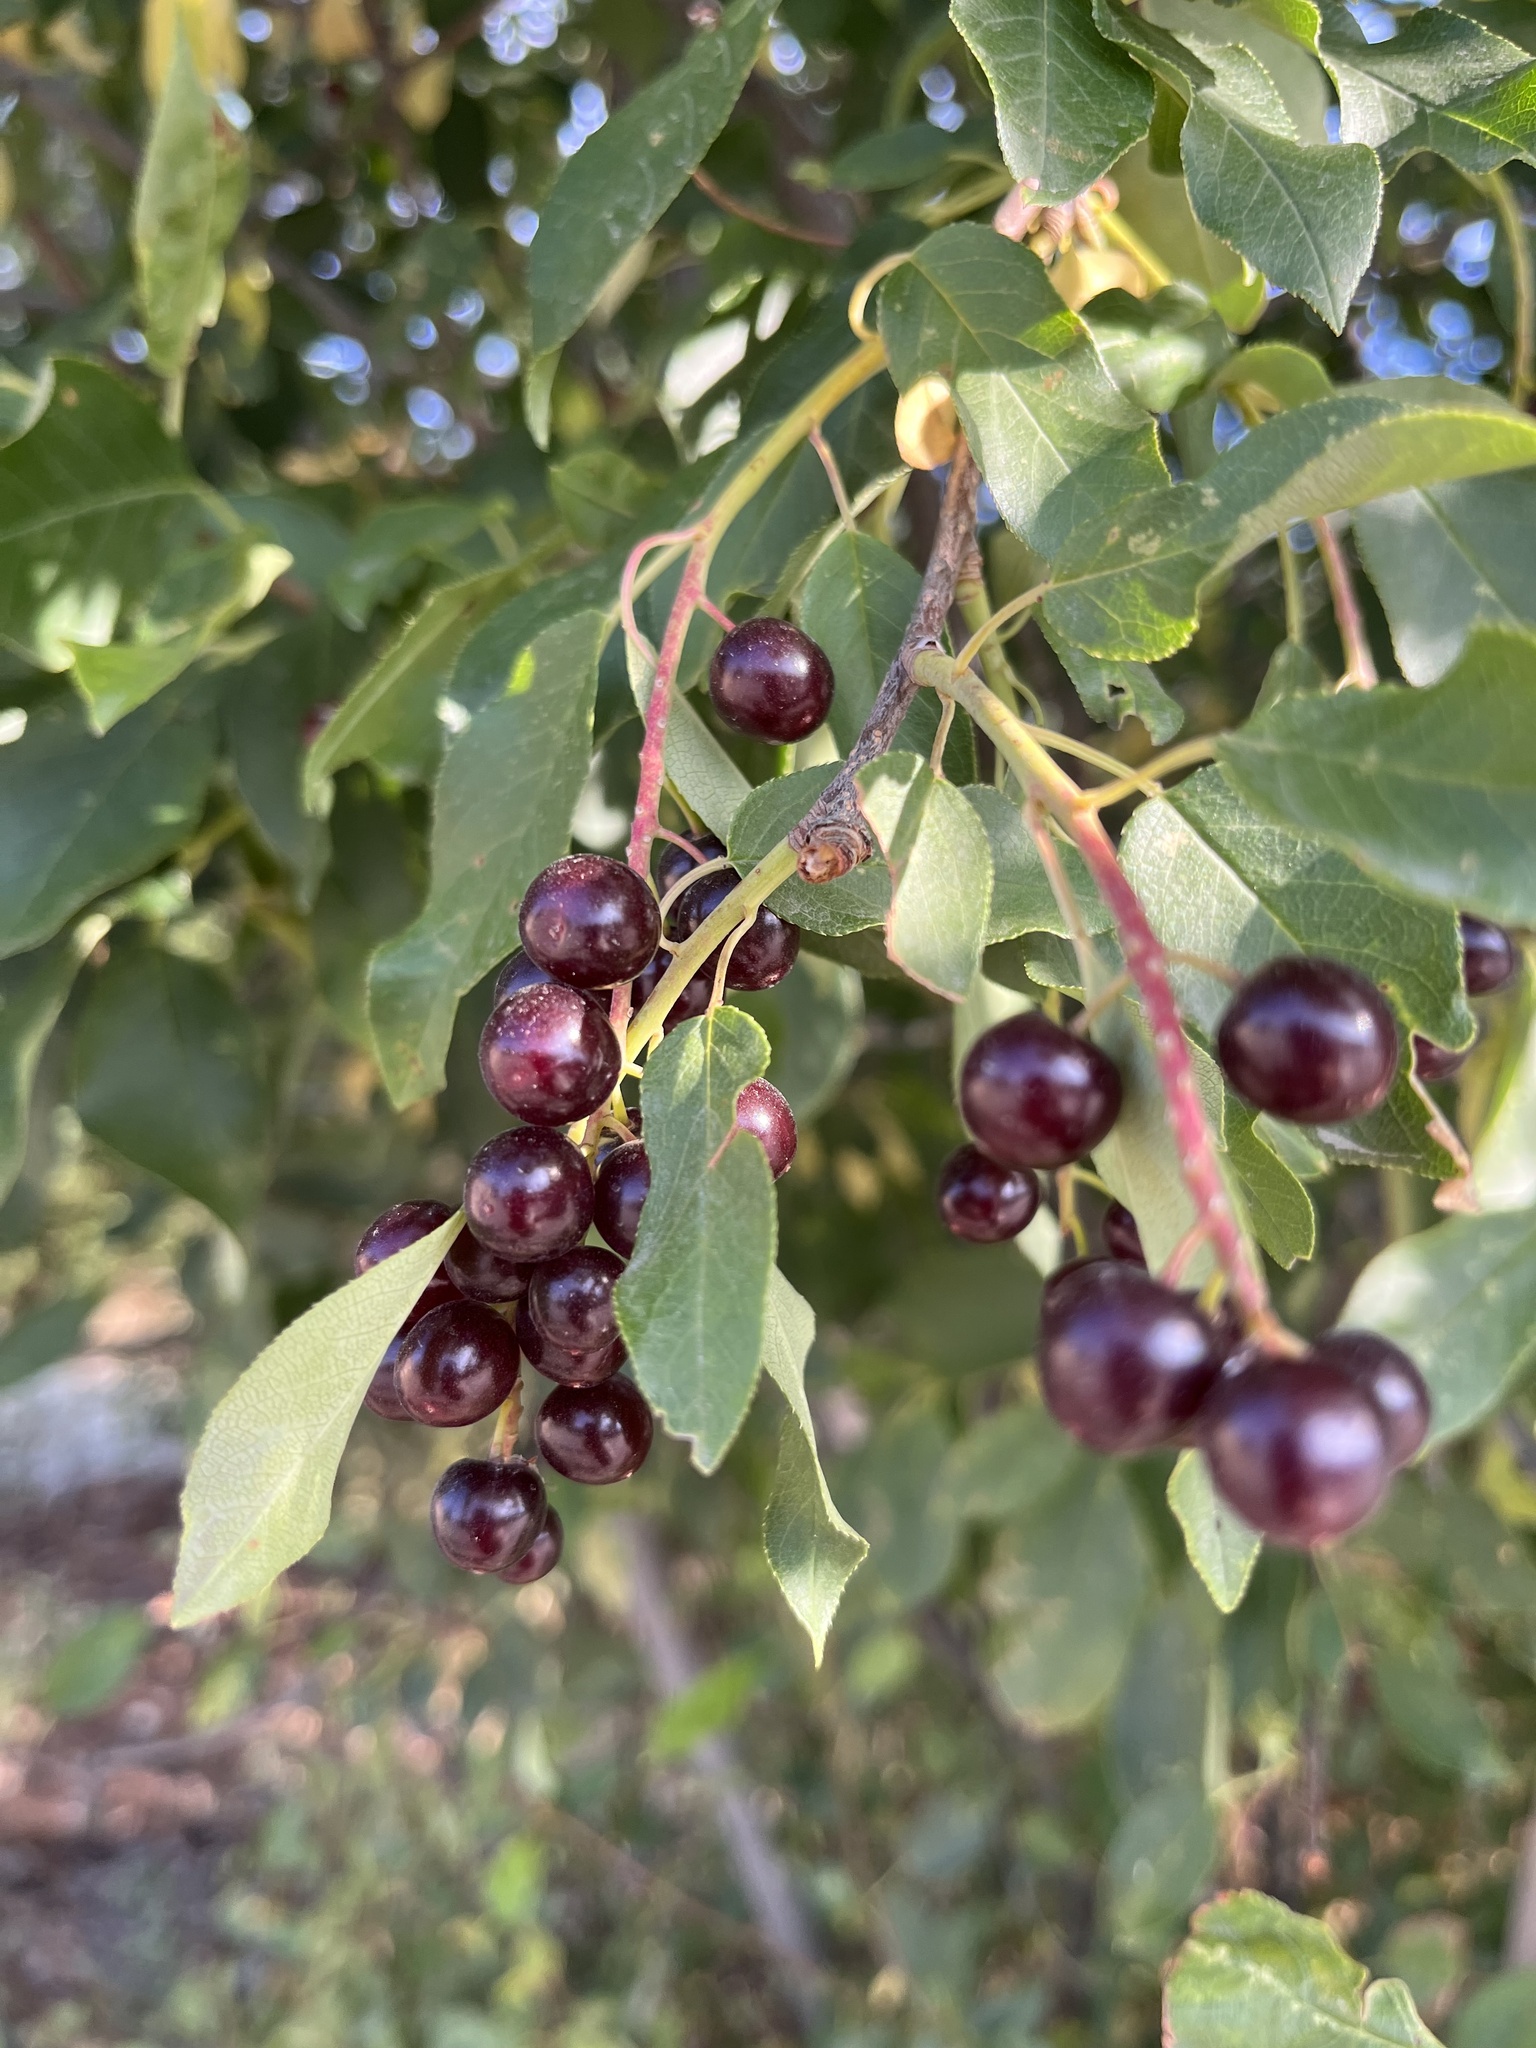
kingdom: Plantae
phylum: Tracheophyta
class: Magnoliopsida
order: Rosales
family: Rosaceae
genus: Prunus
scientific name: Prunus virginiana
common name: Chokecherry
